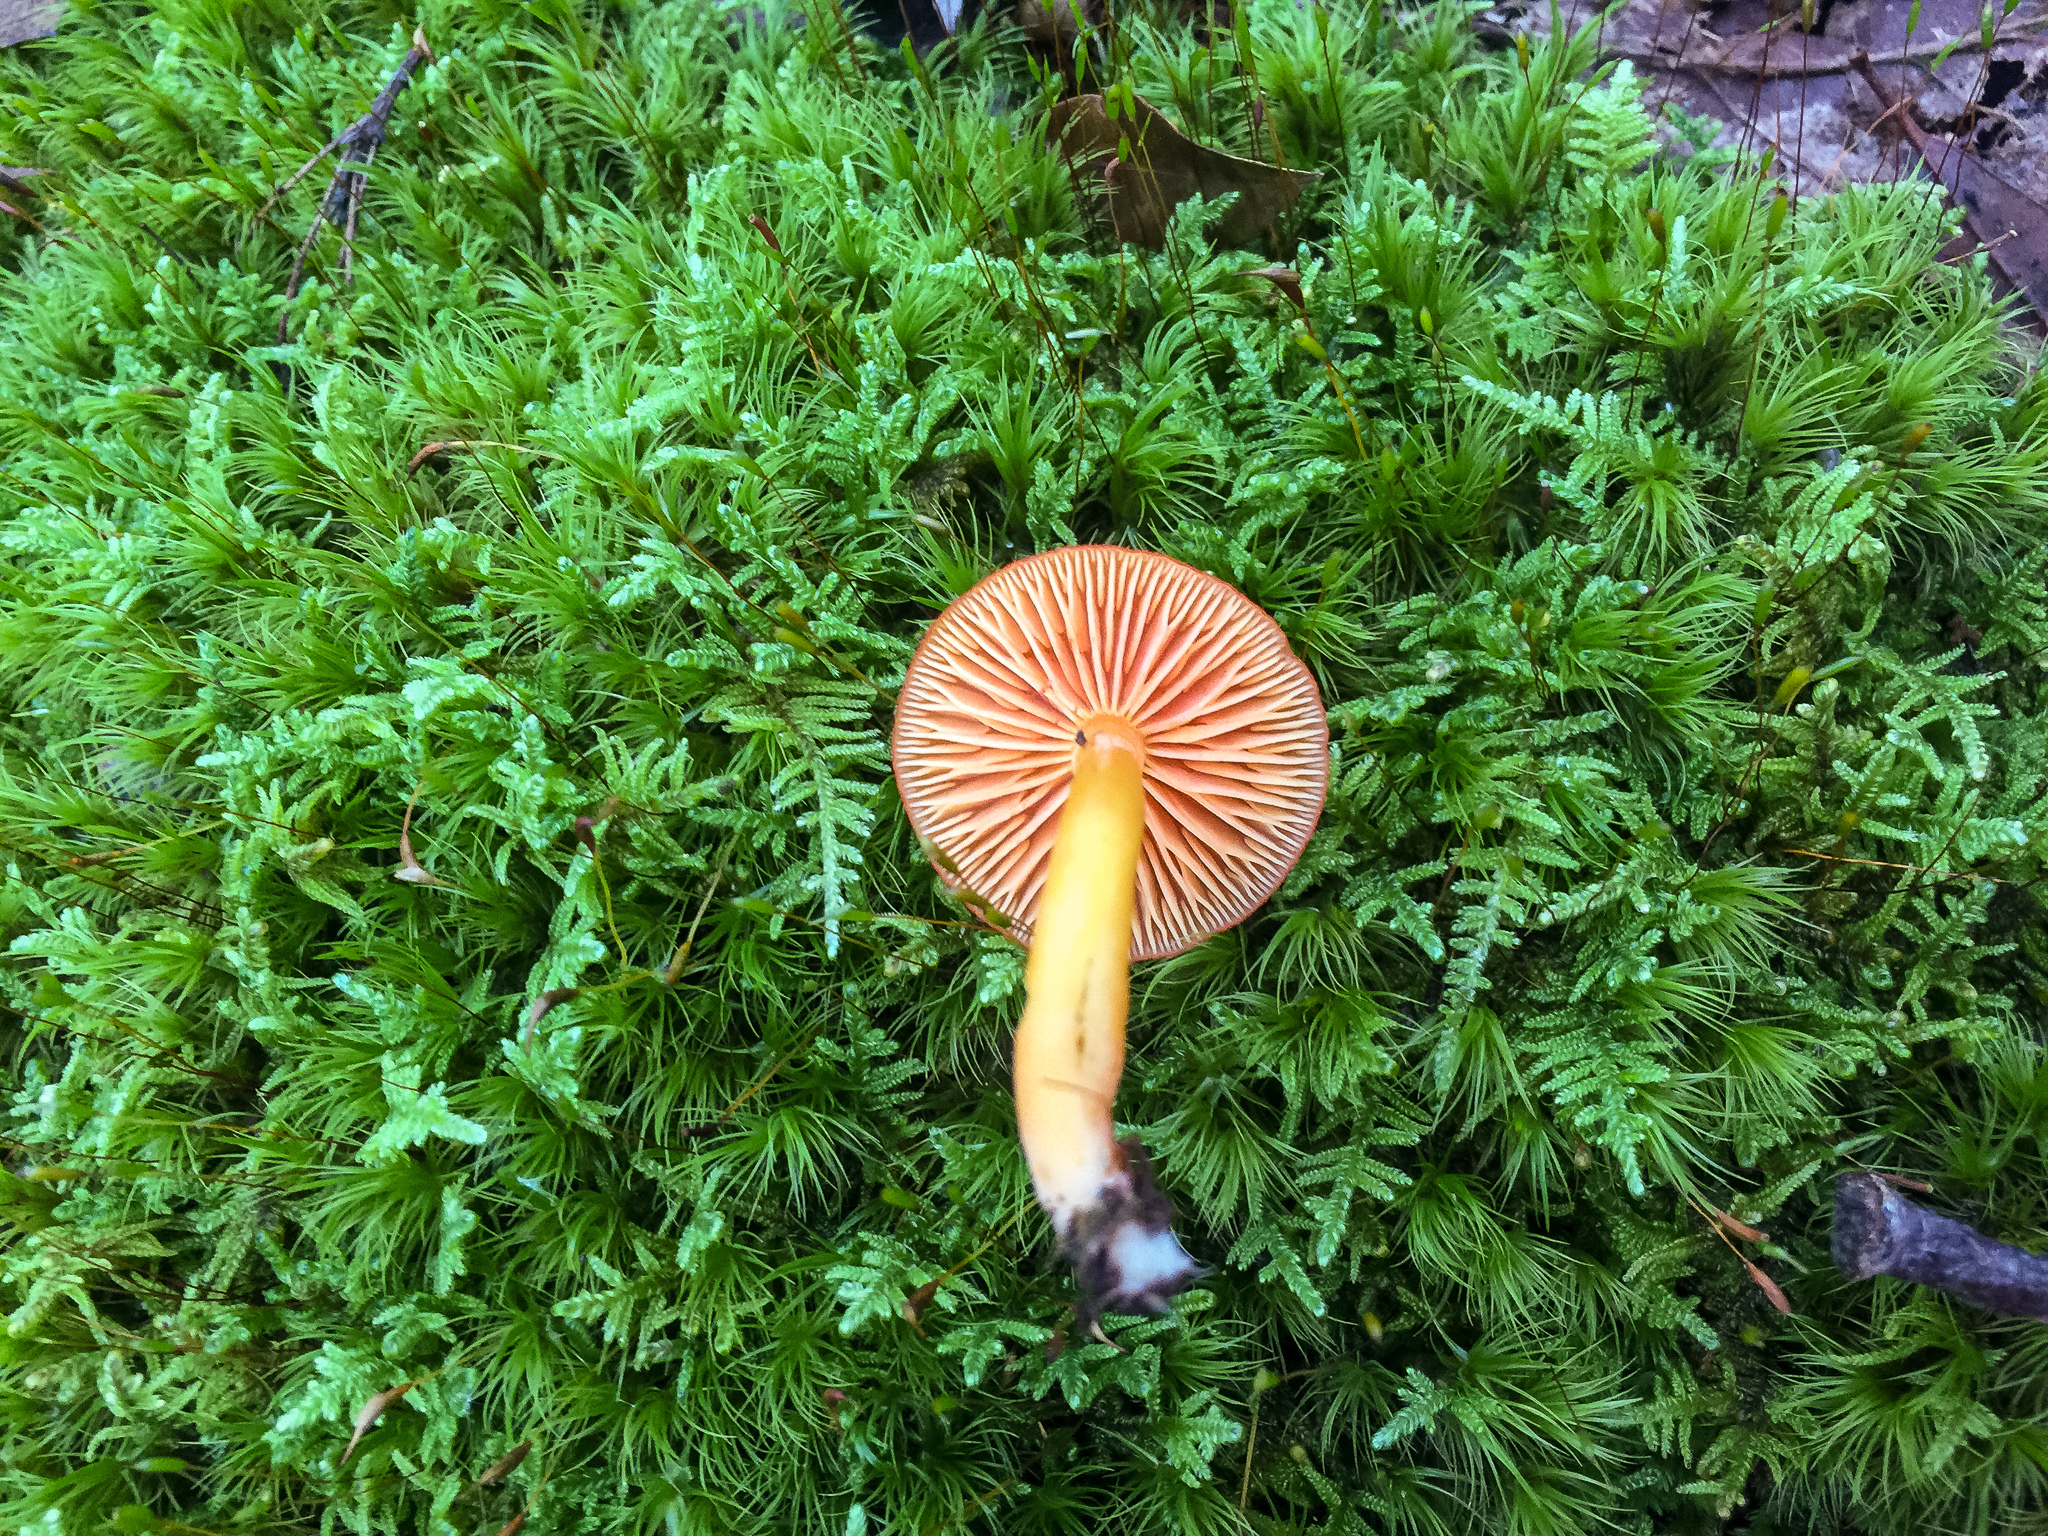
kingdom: Fungi
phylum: Basidiomycota
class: Agaricomycetes
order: Agaricales
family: Hygrophoraceae
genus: Hygrocybe
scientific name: Hygrocybe miniata
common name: Vermilion waxcap
